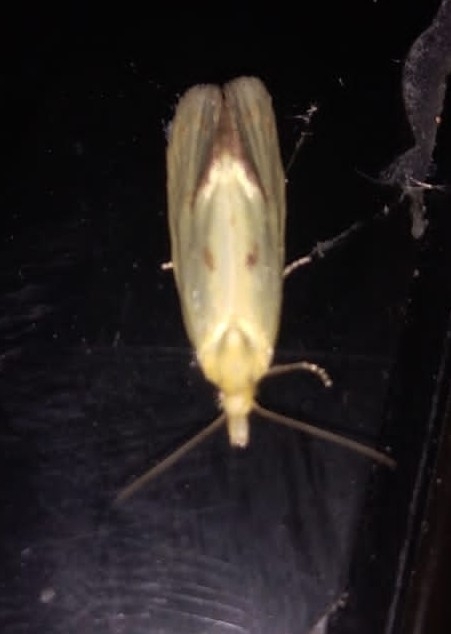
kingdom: Animalia
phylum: Arthropoda
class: Insecta
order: Lepidoptera
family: Tortricidae
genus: Agapeta
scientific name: Agapeta hamana
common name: Common yellow conch
